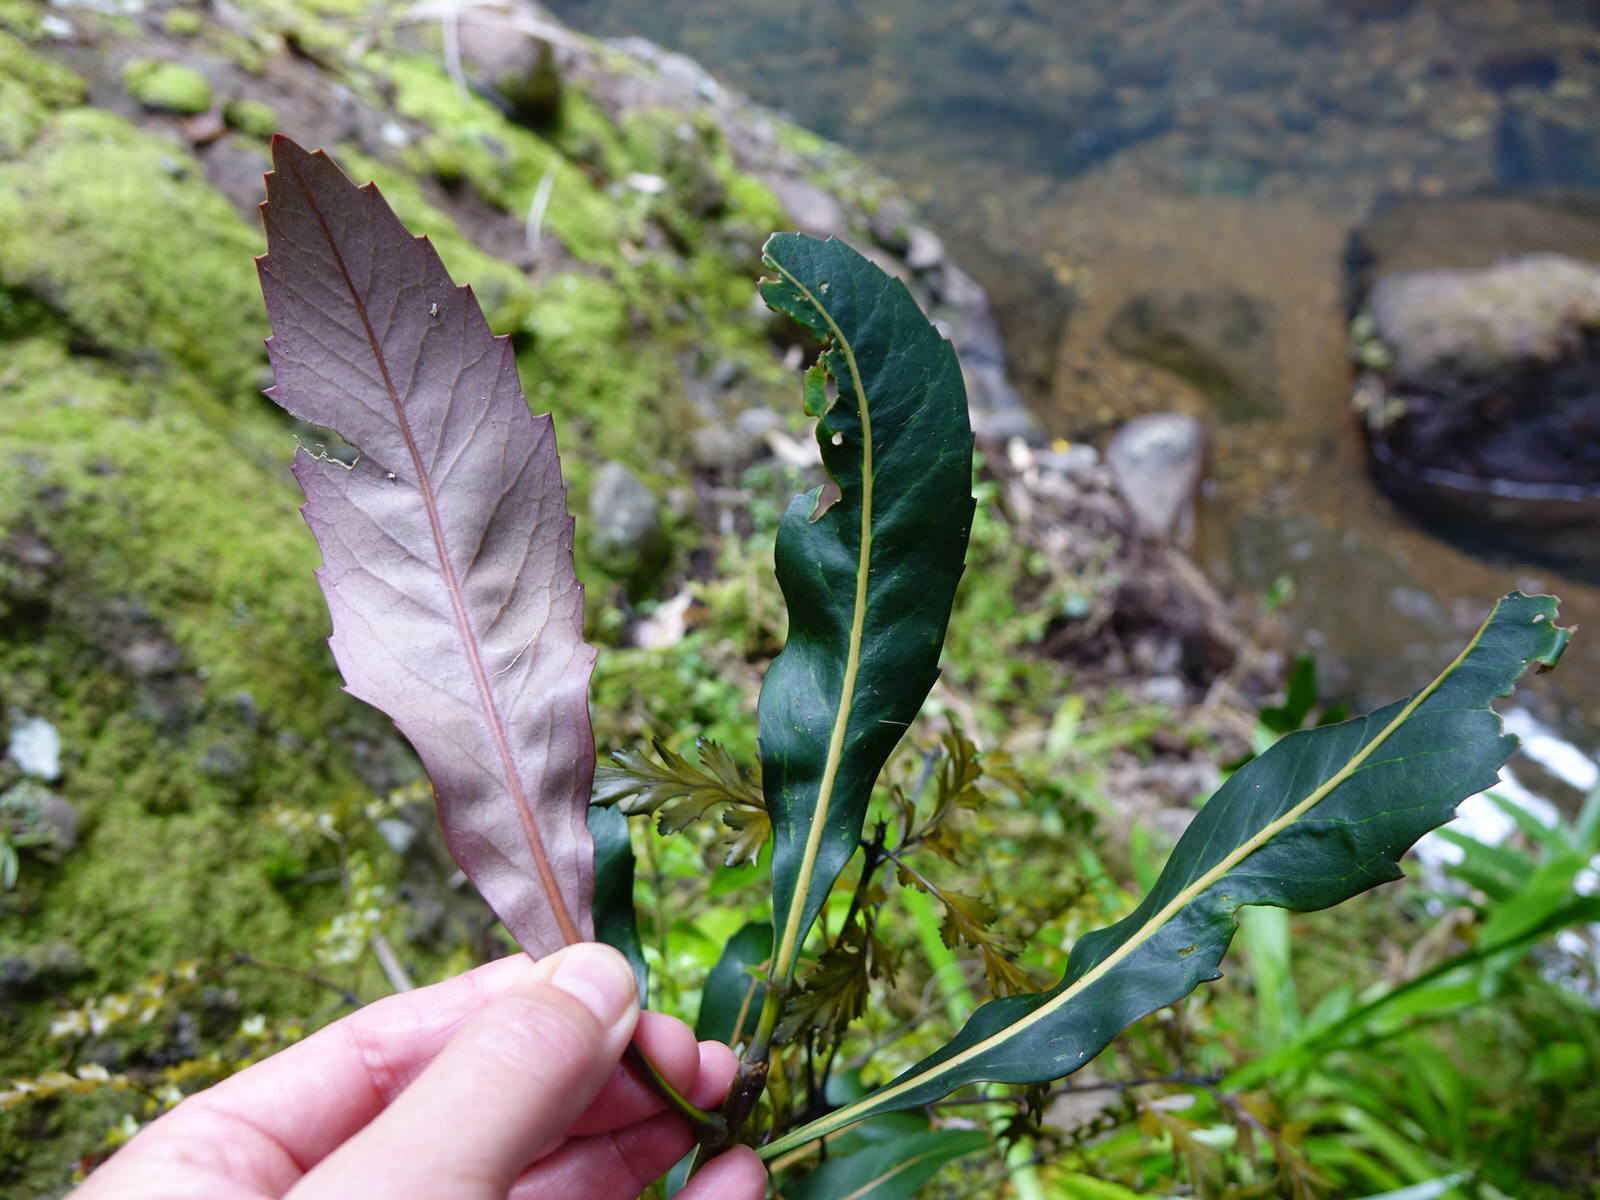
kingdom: Plantae
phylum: Tracheophyta
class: Magnoliopsida
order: Apiales
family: Araliaceae
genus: Pseudopanax
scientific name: Pseudopanax
